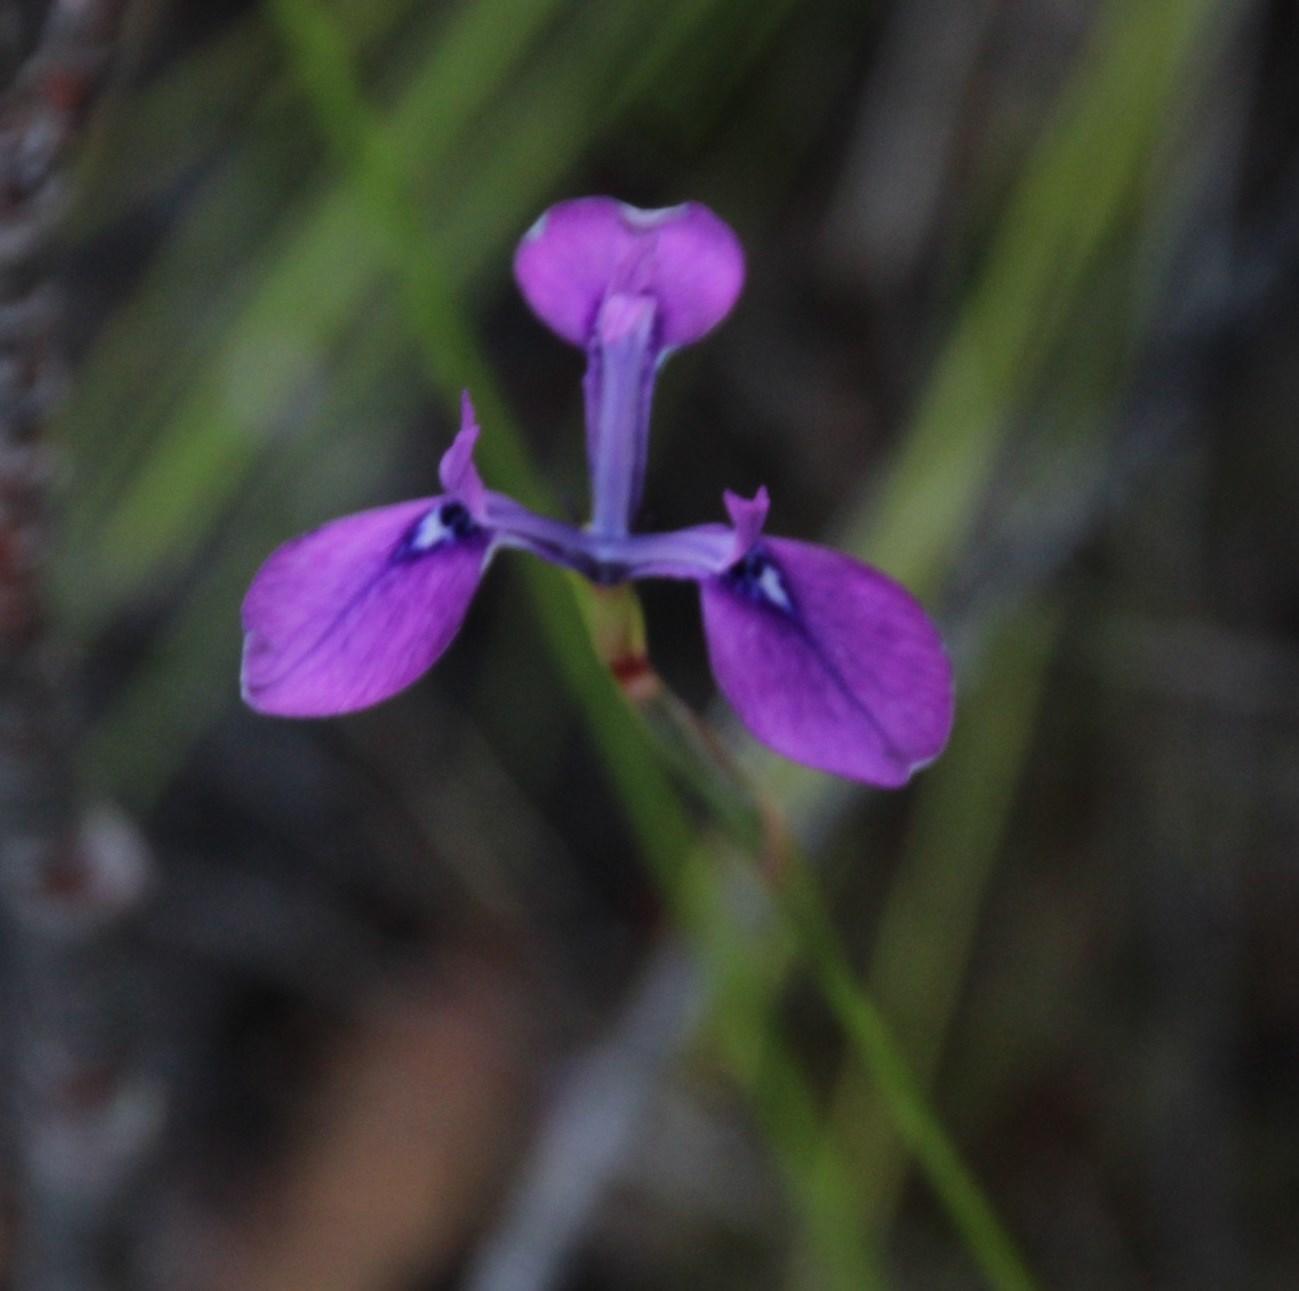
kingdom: Plantae
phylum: Tracheophyta
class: Liliopsida
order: Asparagales
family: Iridaceae
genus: Moraea
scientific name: Moraea tripetala
